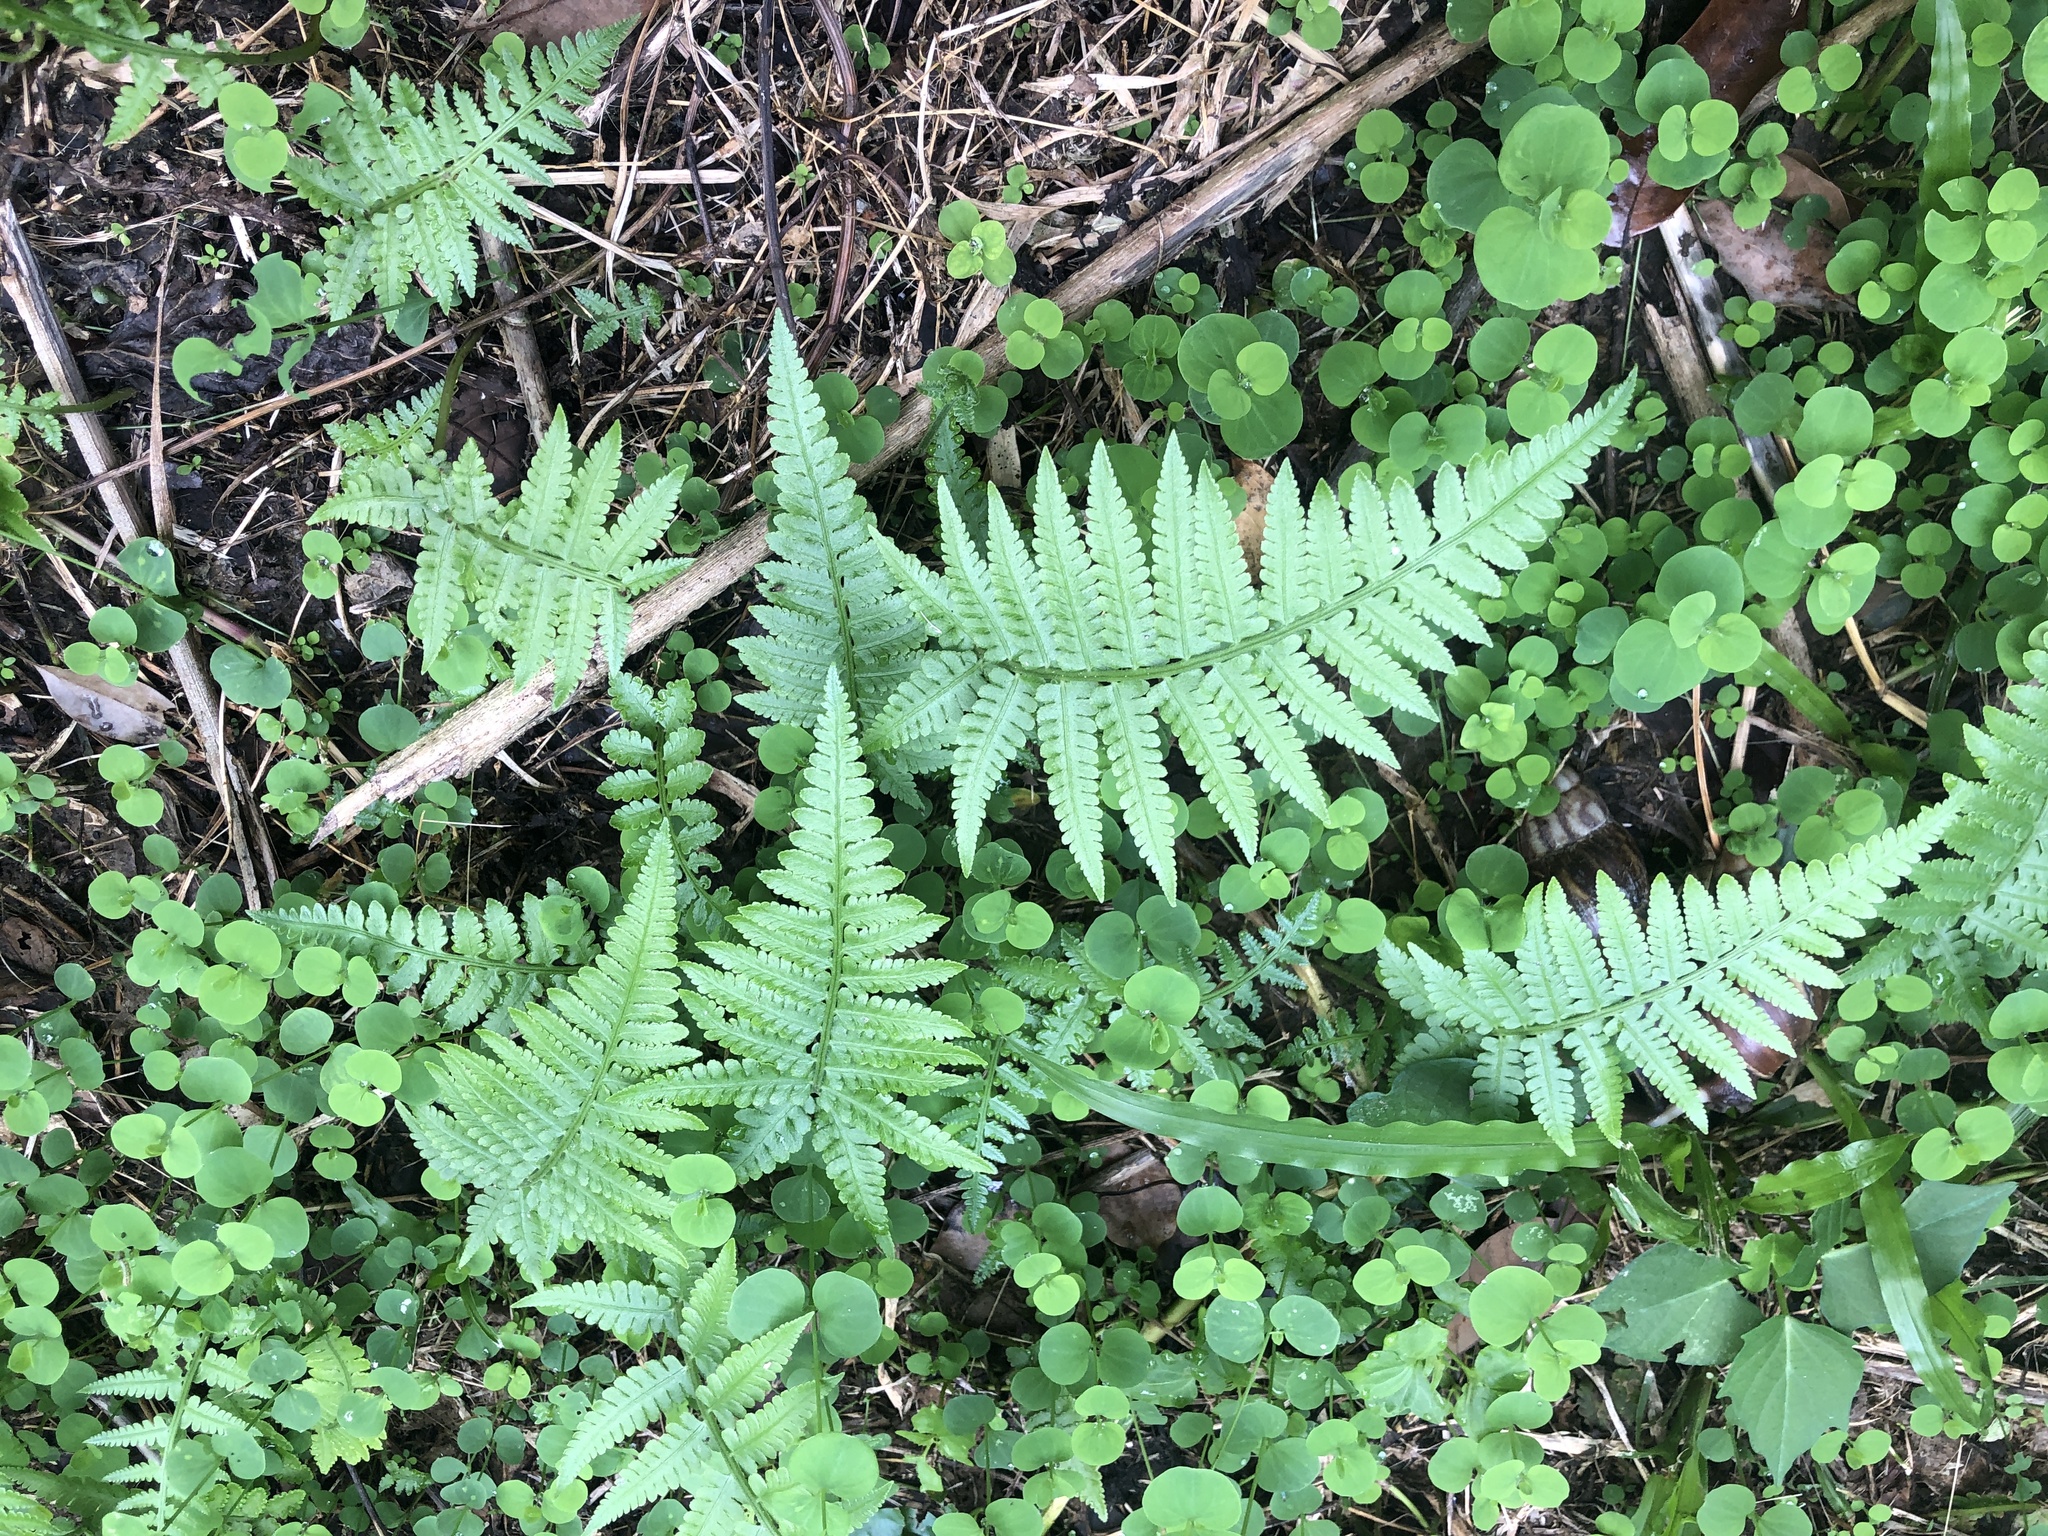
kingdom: Plantae
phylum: Tracheophyta
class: Polypodiopsida
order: Polypodiales
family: Thelypteridaceae
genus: Christella
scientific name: Christella parasitica
